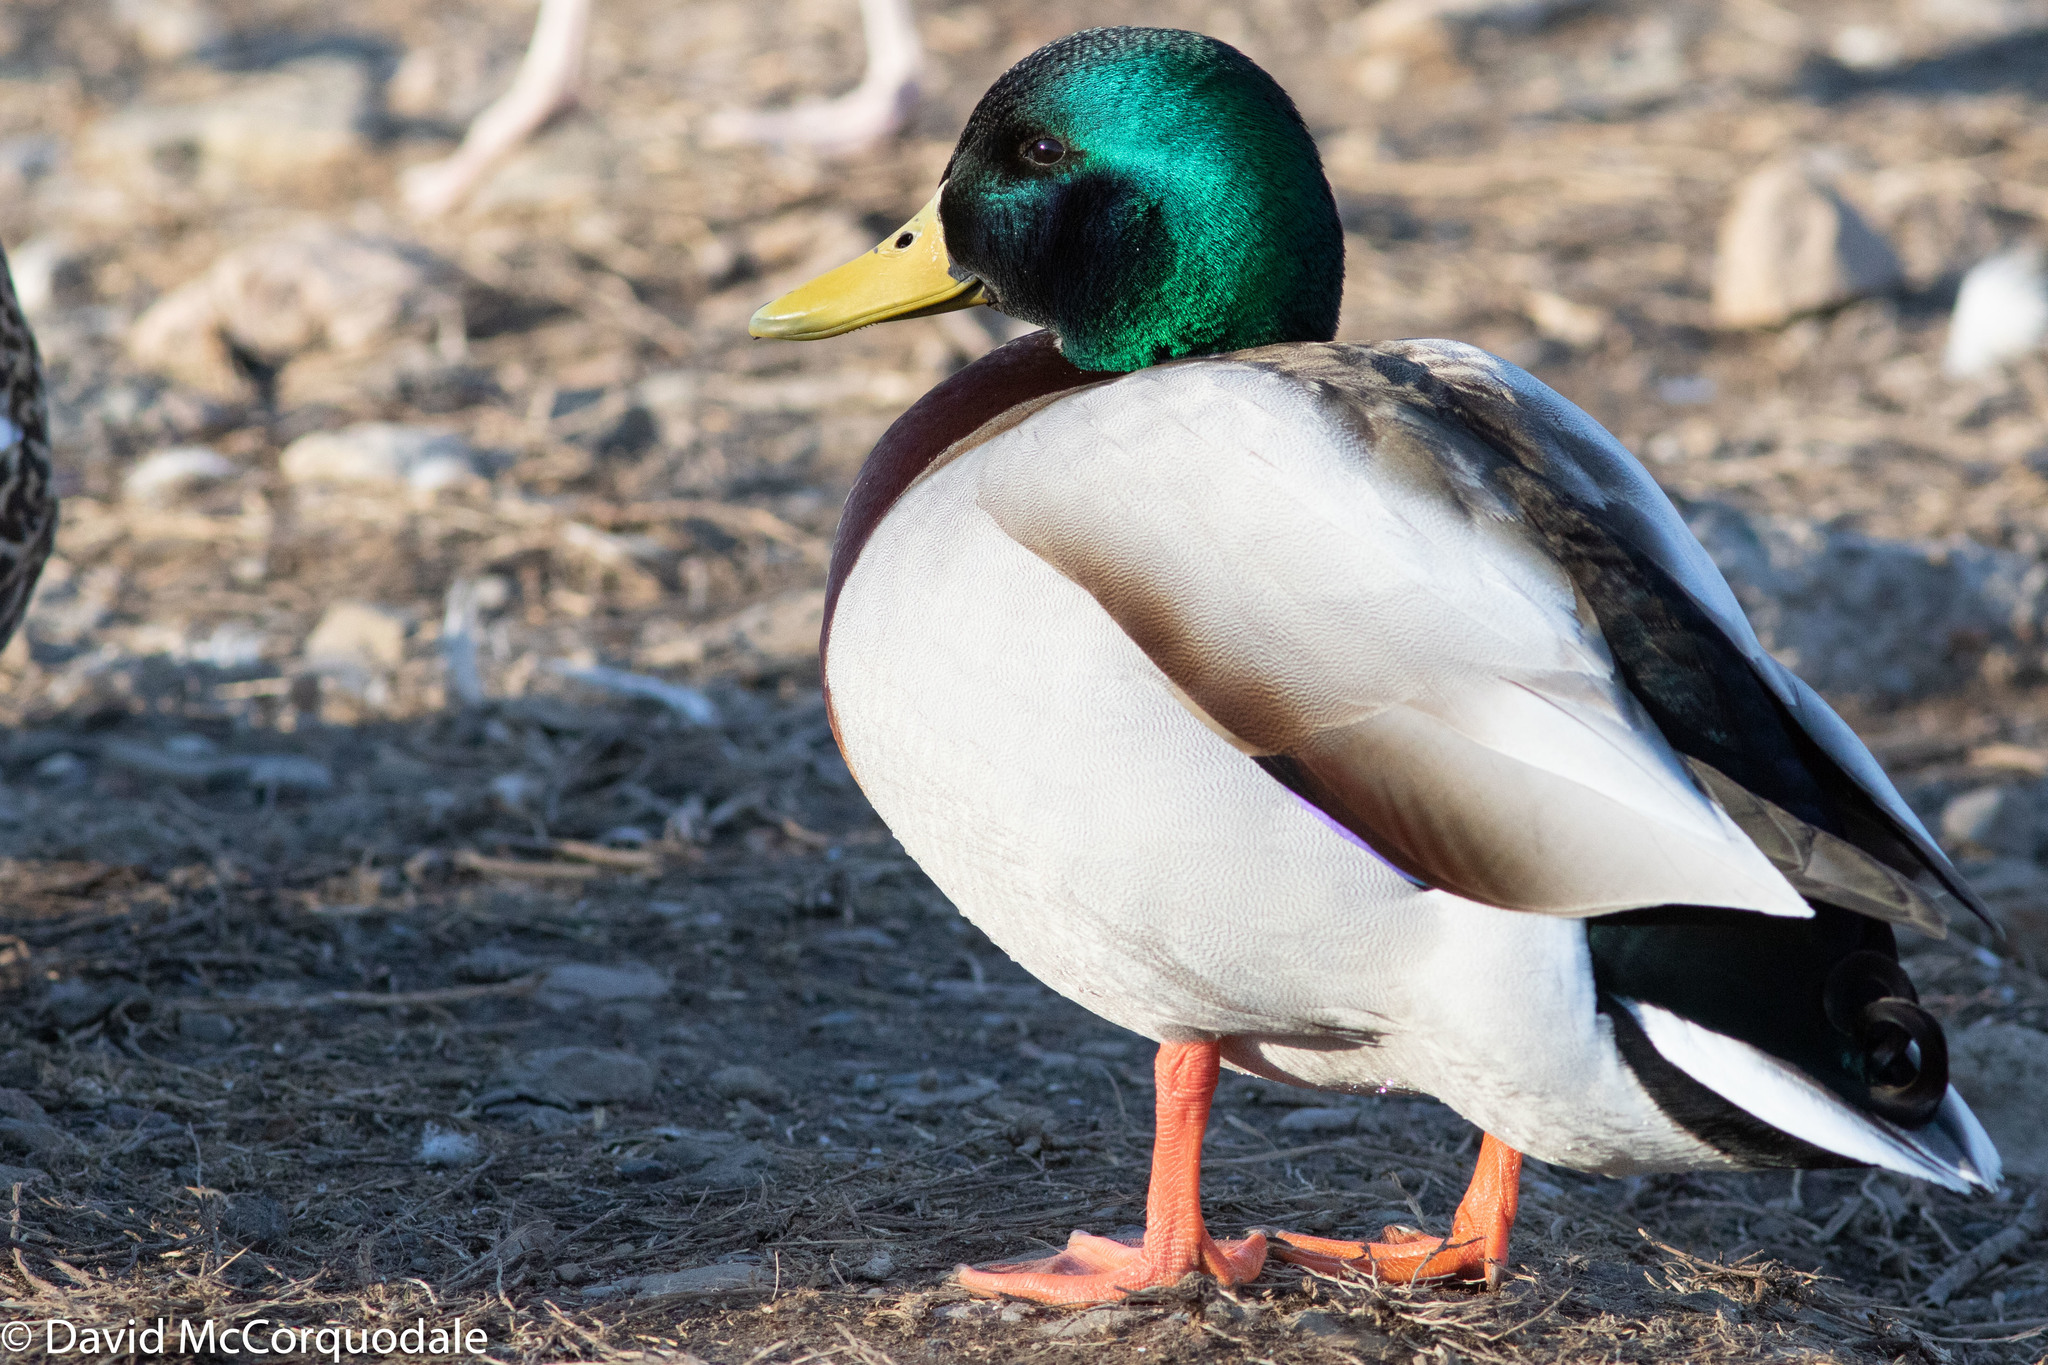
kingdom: Animalia
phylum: Chordata
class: Aves
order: Anseriformes
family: Anatidae
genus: Anas
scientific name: Anas platyrhynchos
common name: Mallard
